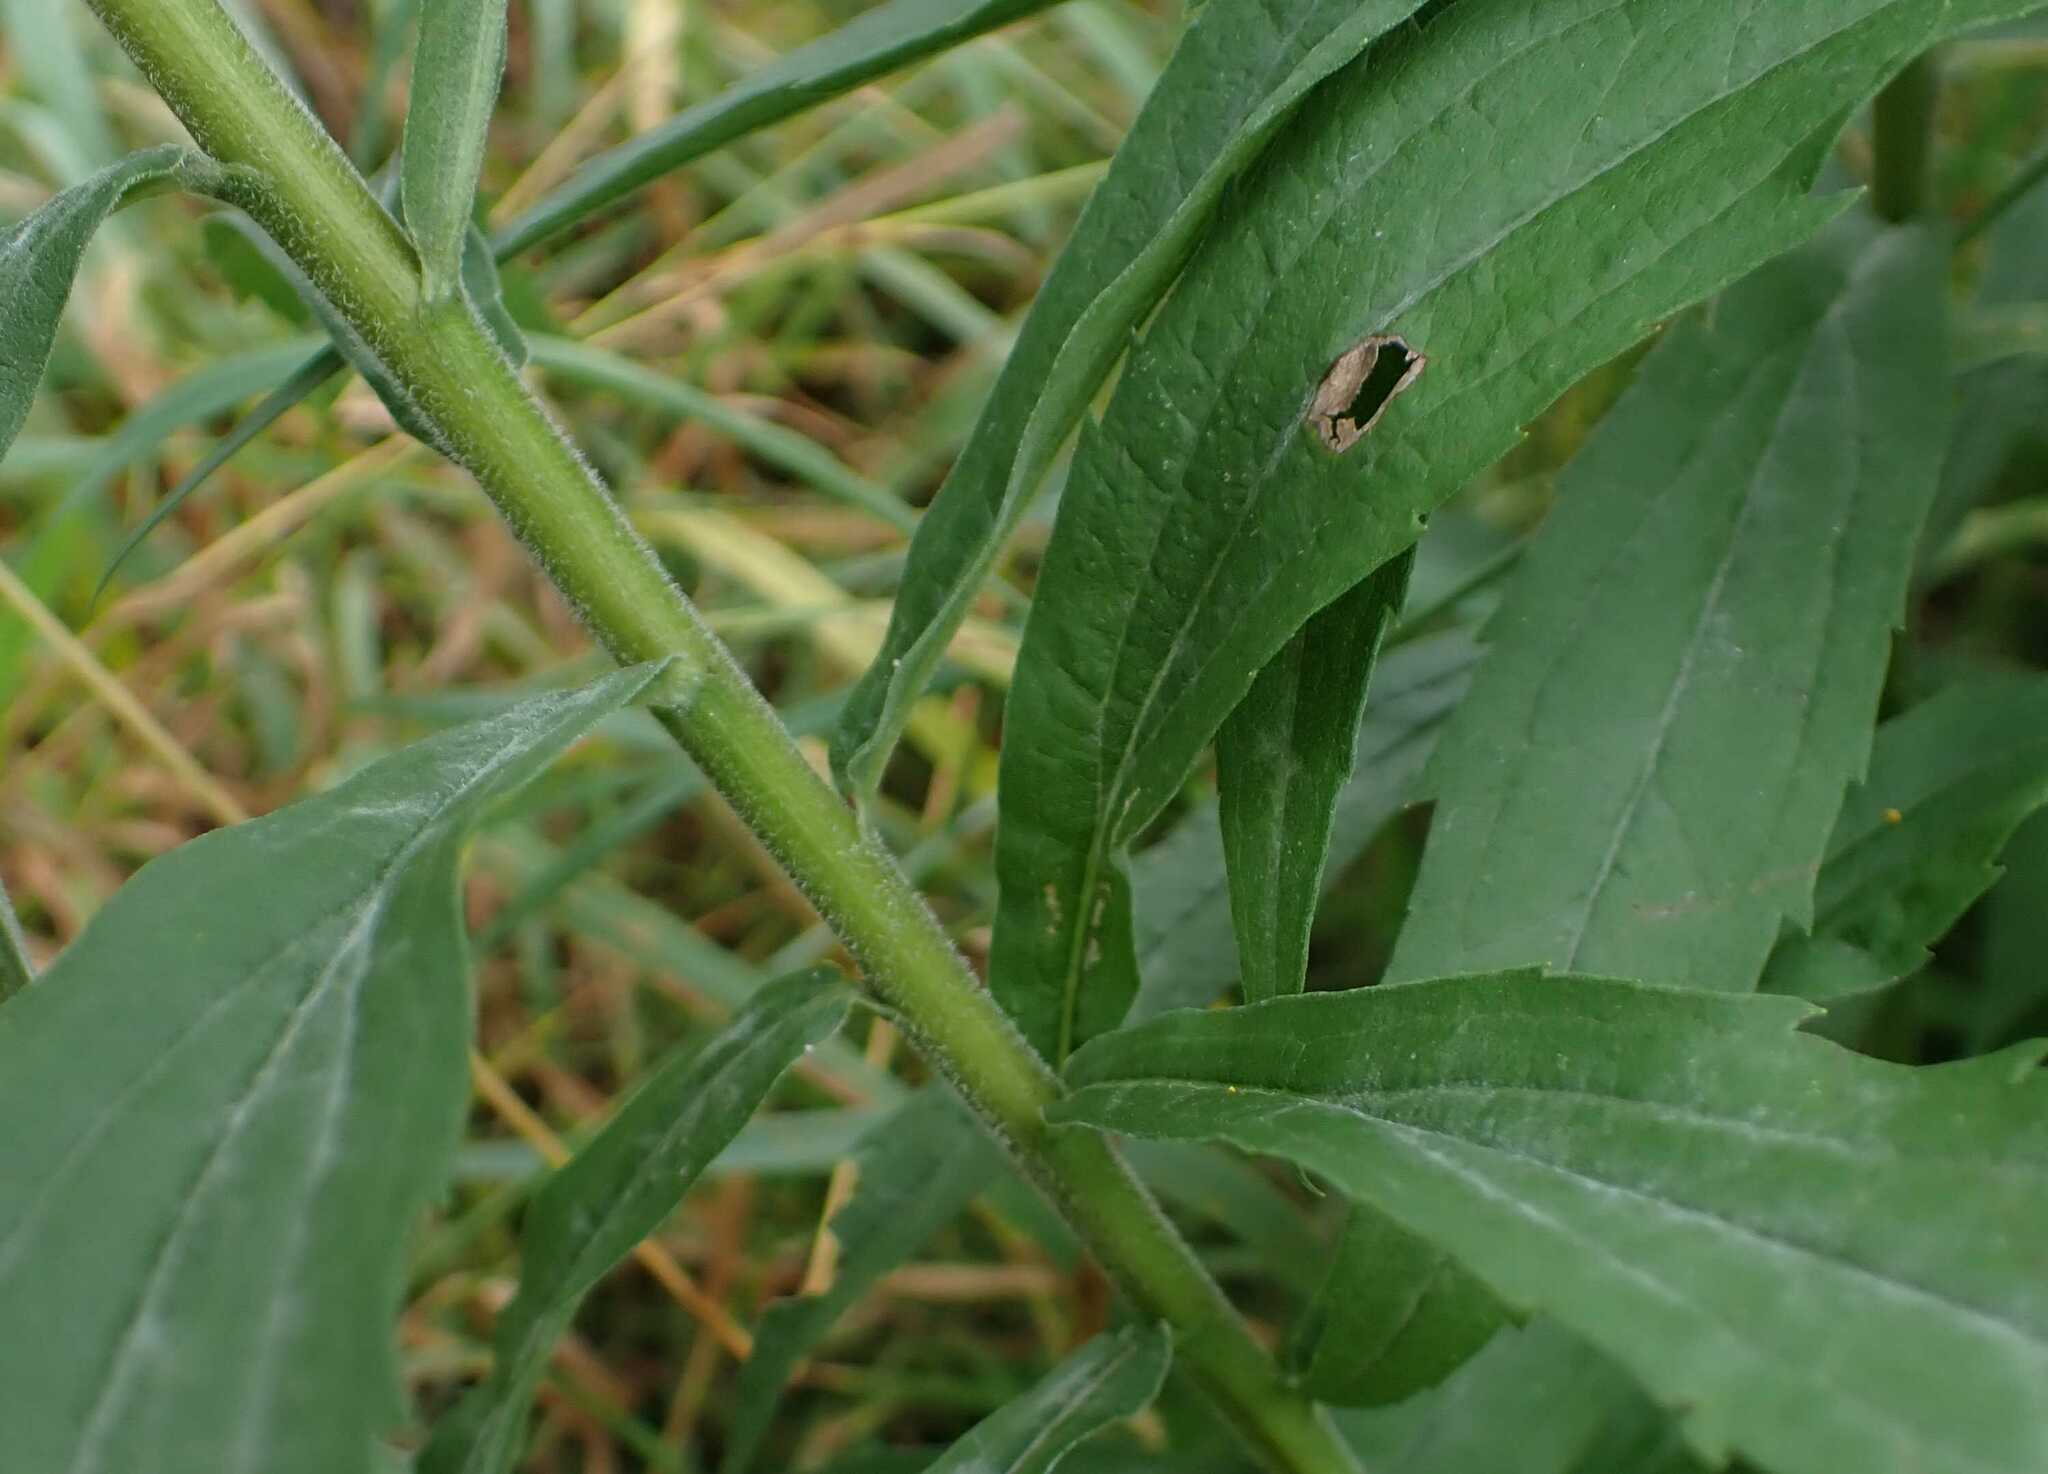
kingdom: Plantae
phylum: Tracheophyta
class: Magnoliopsida
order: Asterales
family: Asteraceae
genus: Solidago
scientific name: Solidago canadensis
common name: Canada goldenrod
